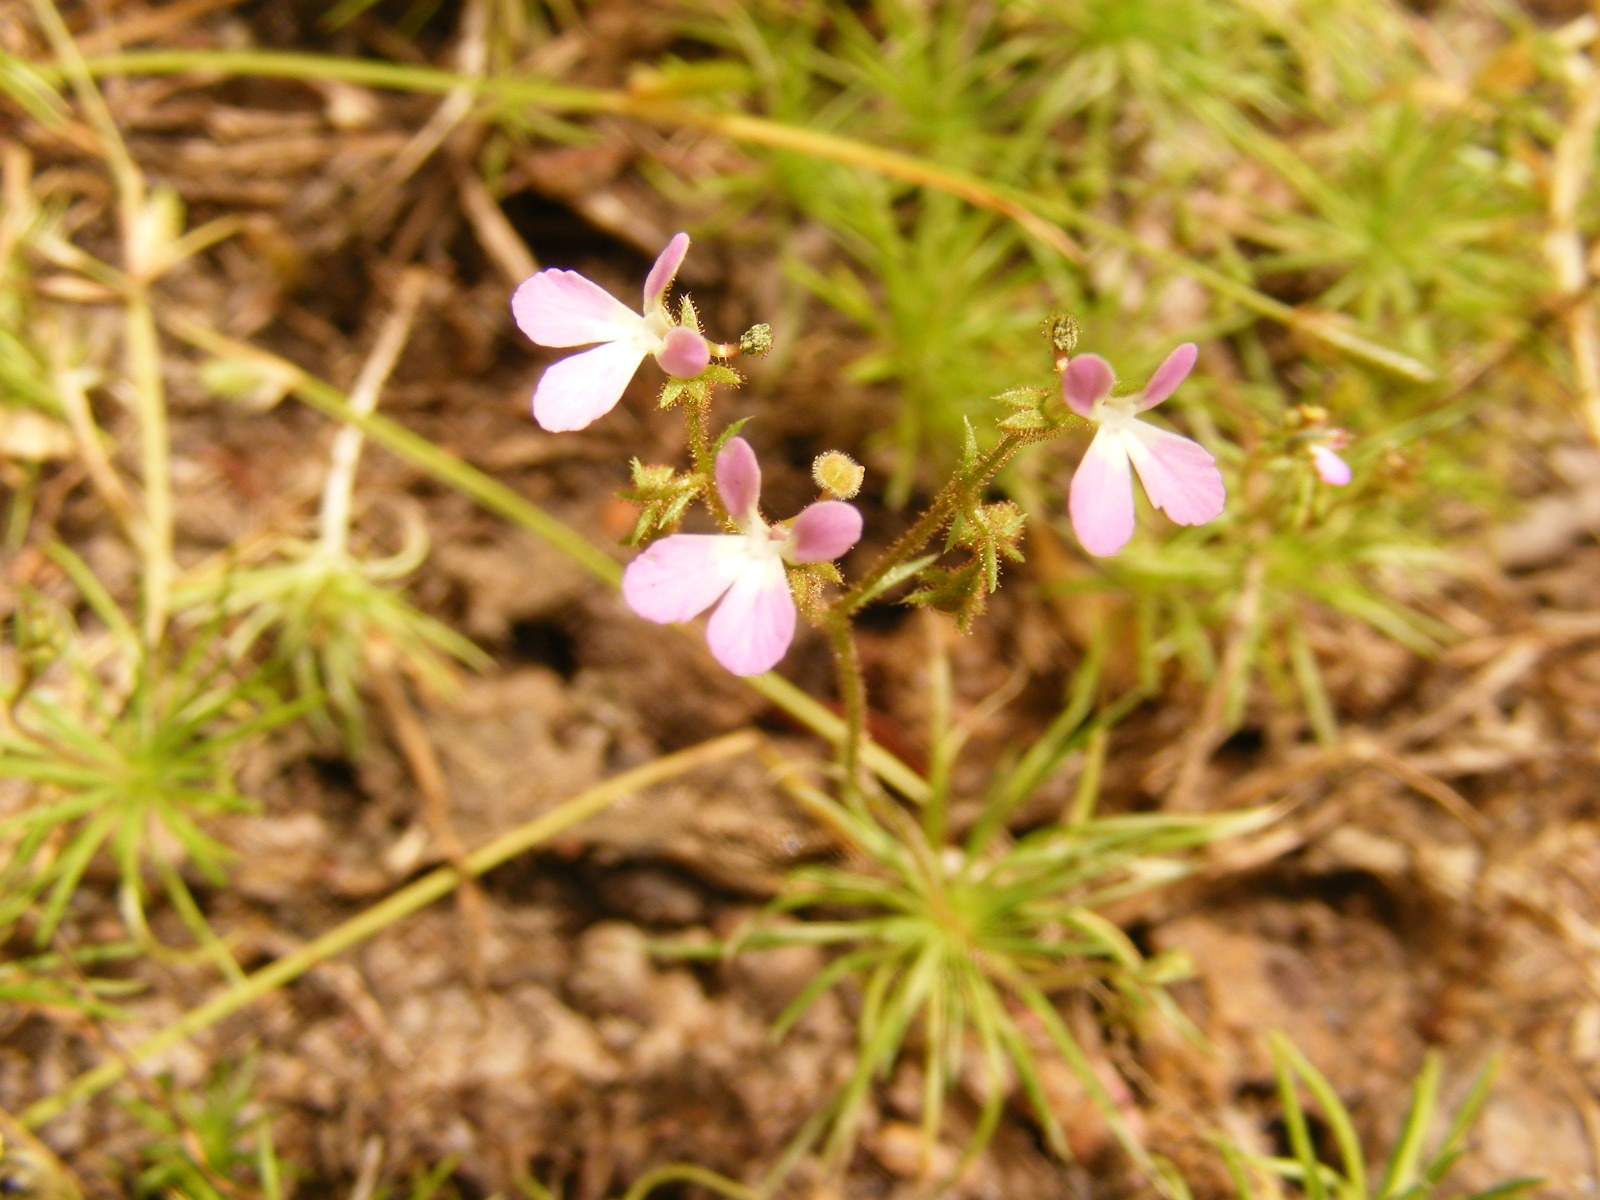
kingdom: Plantae
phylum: Tracheophyta
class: Magnoliopsida
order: Asterales
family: Stylidiaceae
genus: Stylidium
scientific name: Stylidium delicatum
